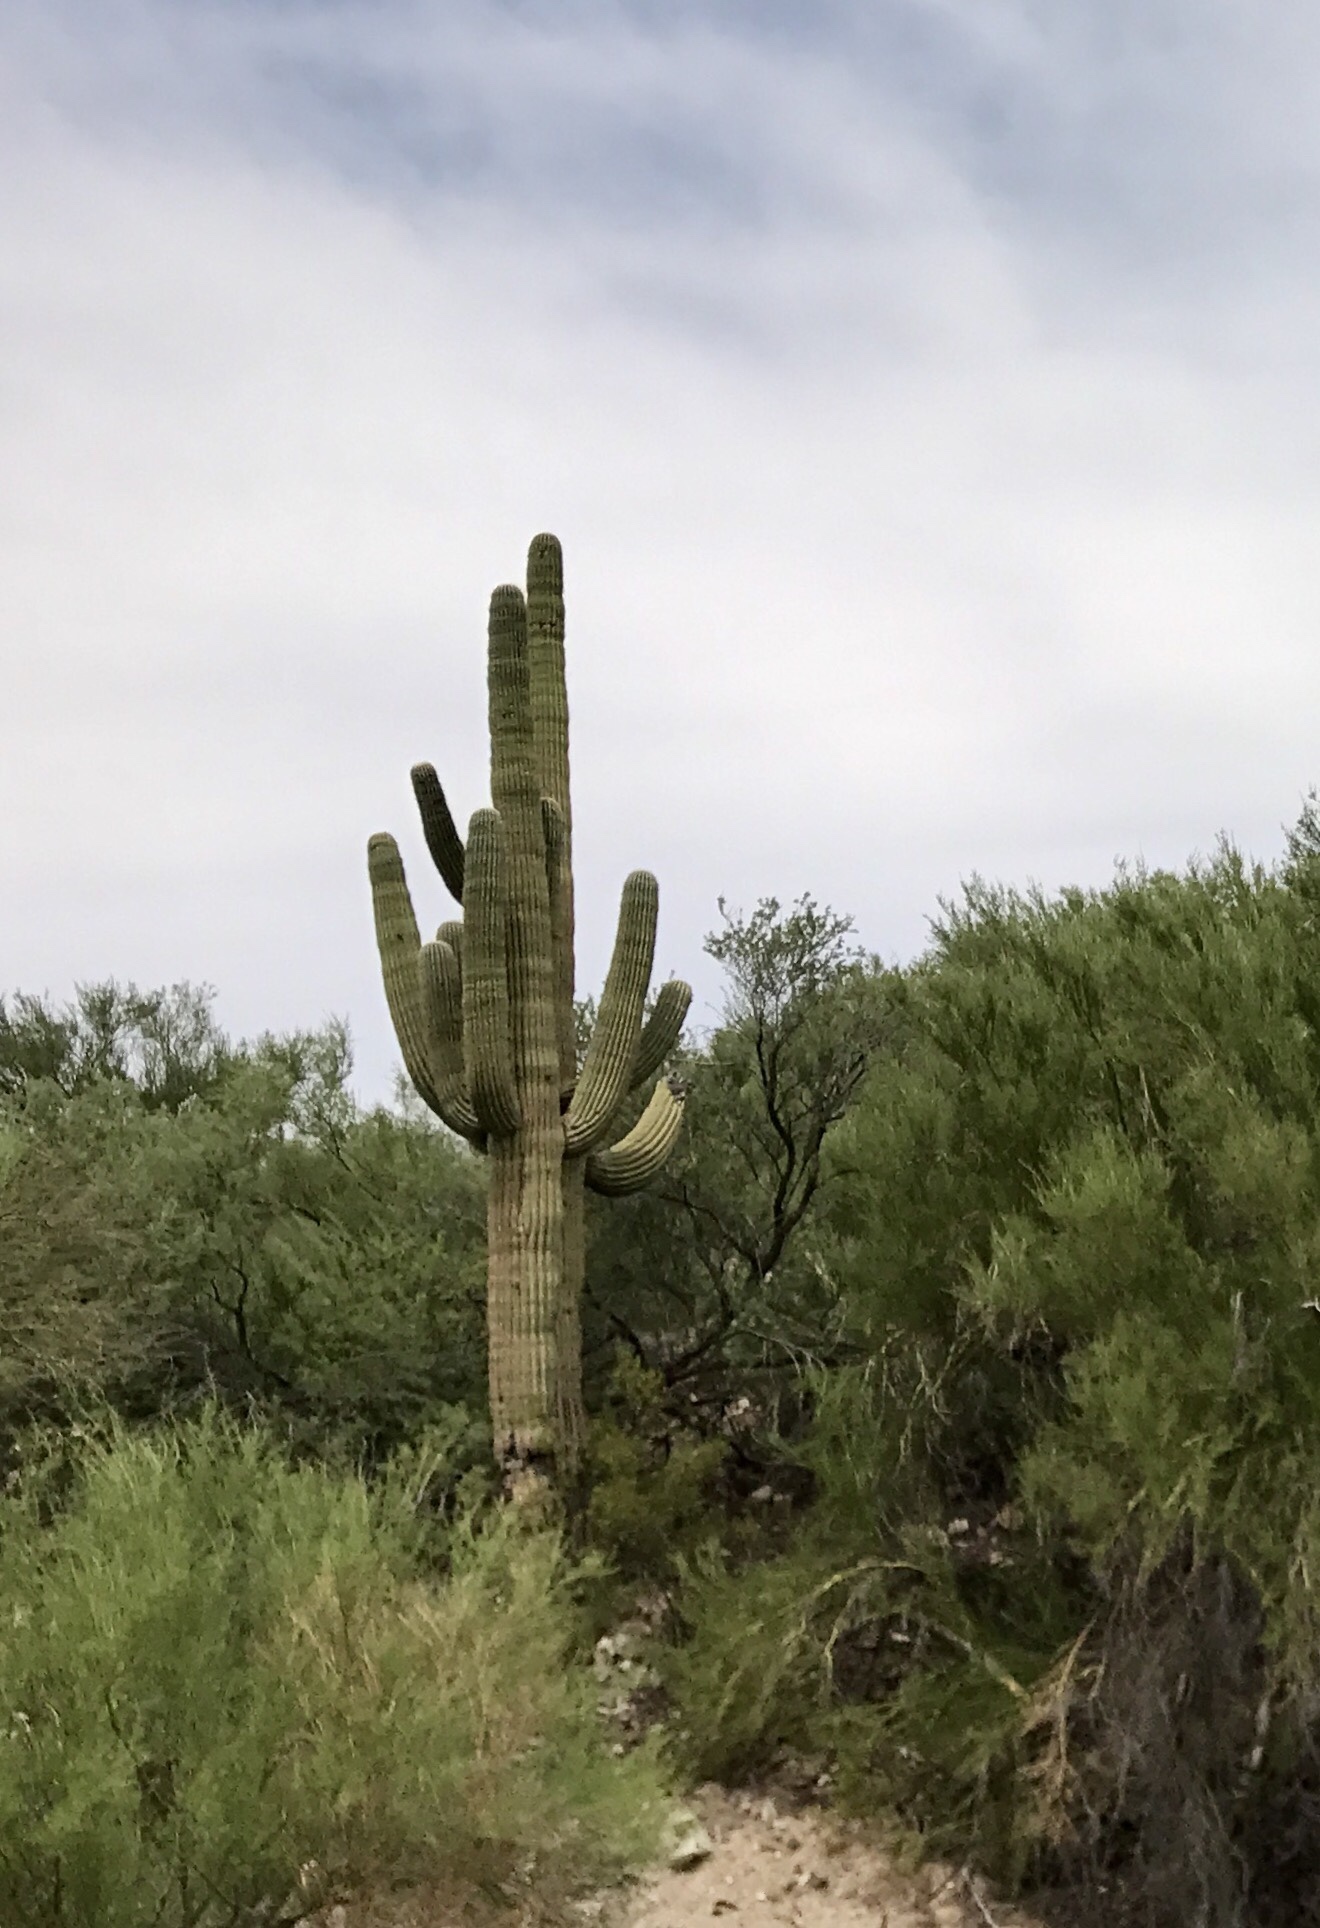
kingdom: Plantae
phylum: Tracheophyta
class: Magnoliopsida
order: Caryophyllales
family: Cactaceae
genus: Carnegiea
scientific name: Carnegiea gigantea
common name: Saguaro
